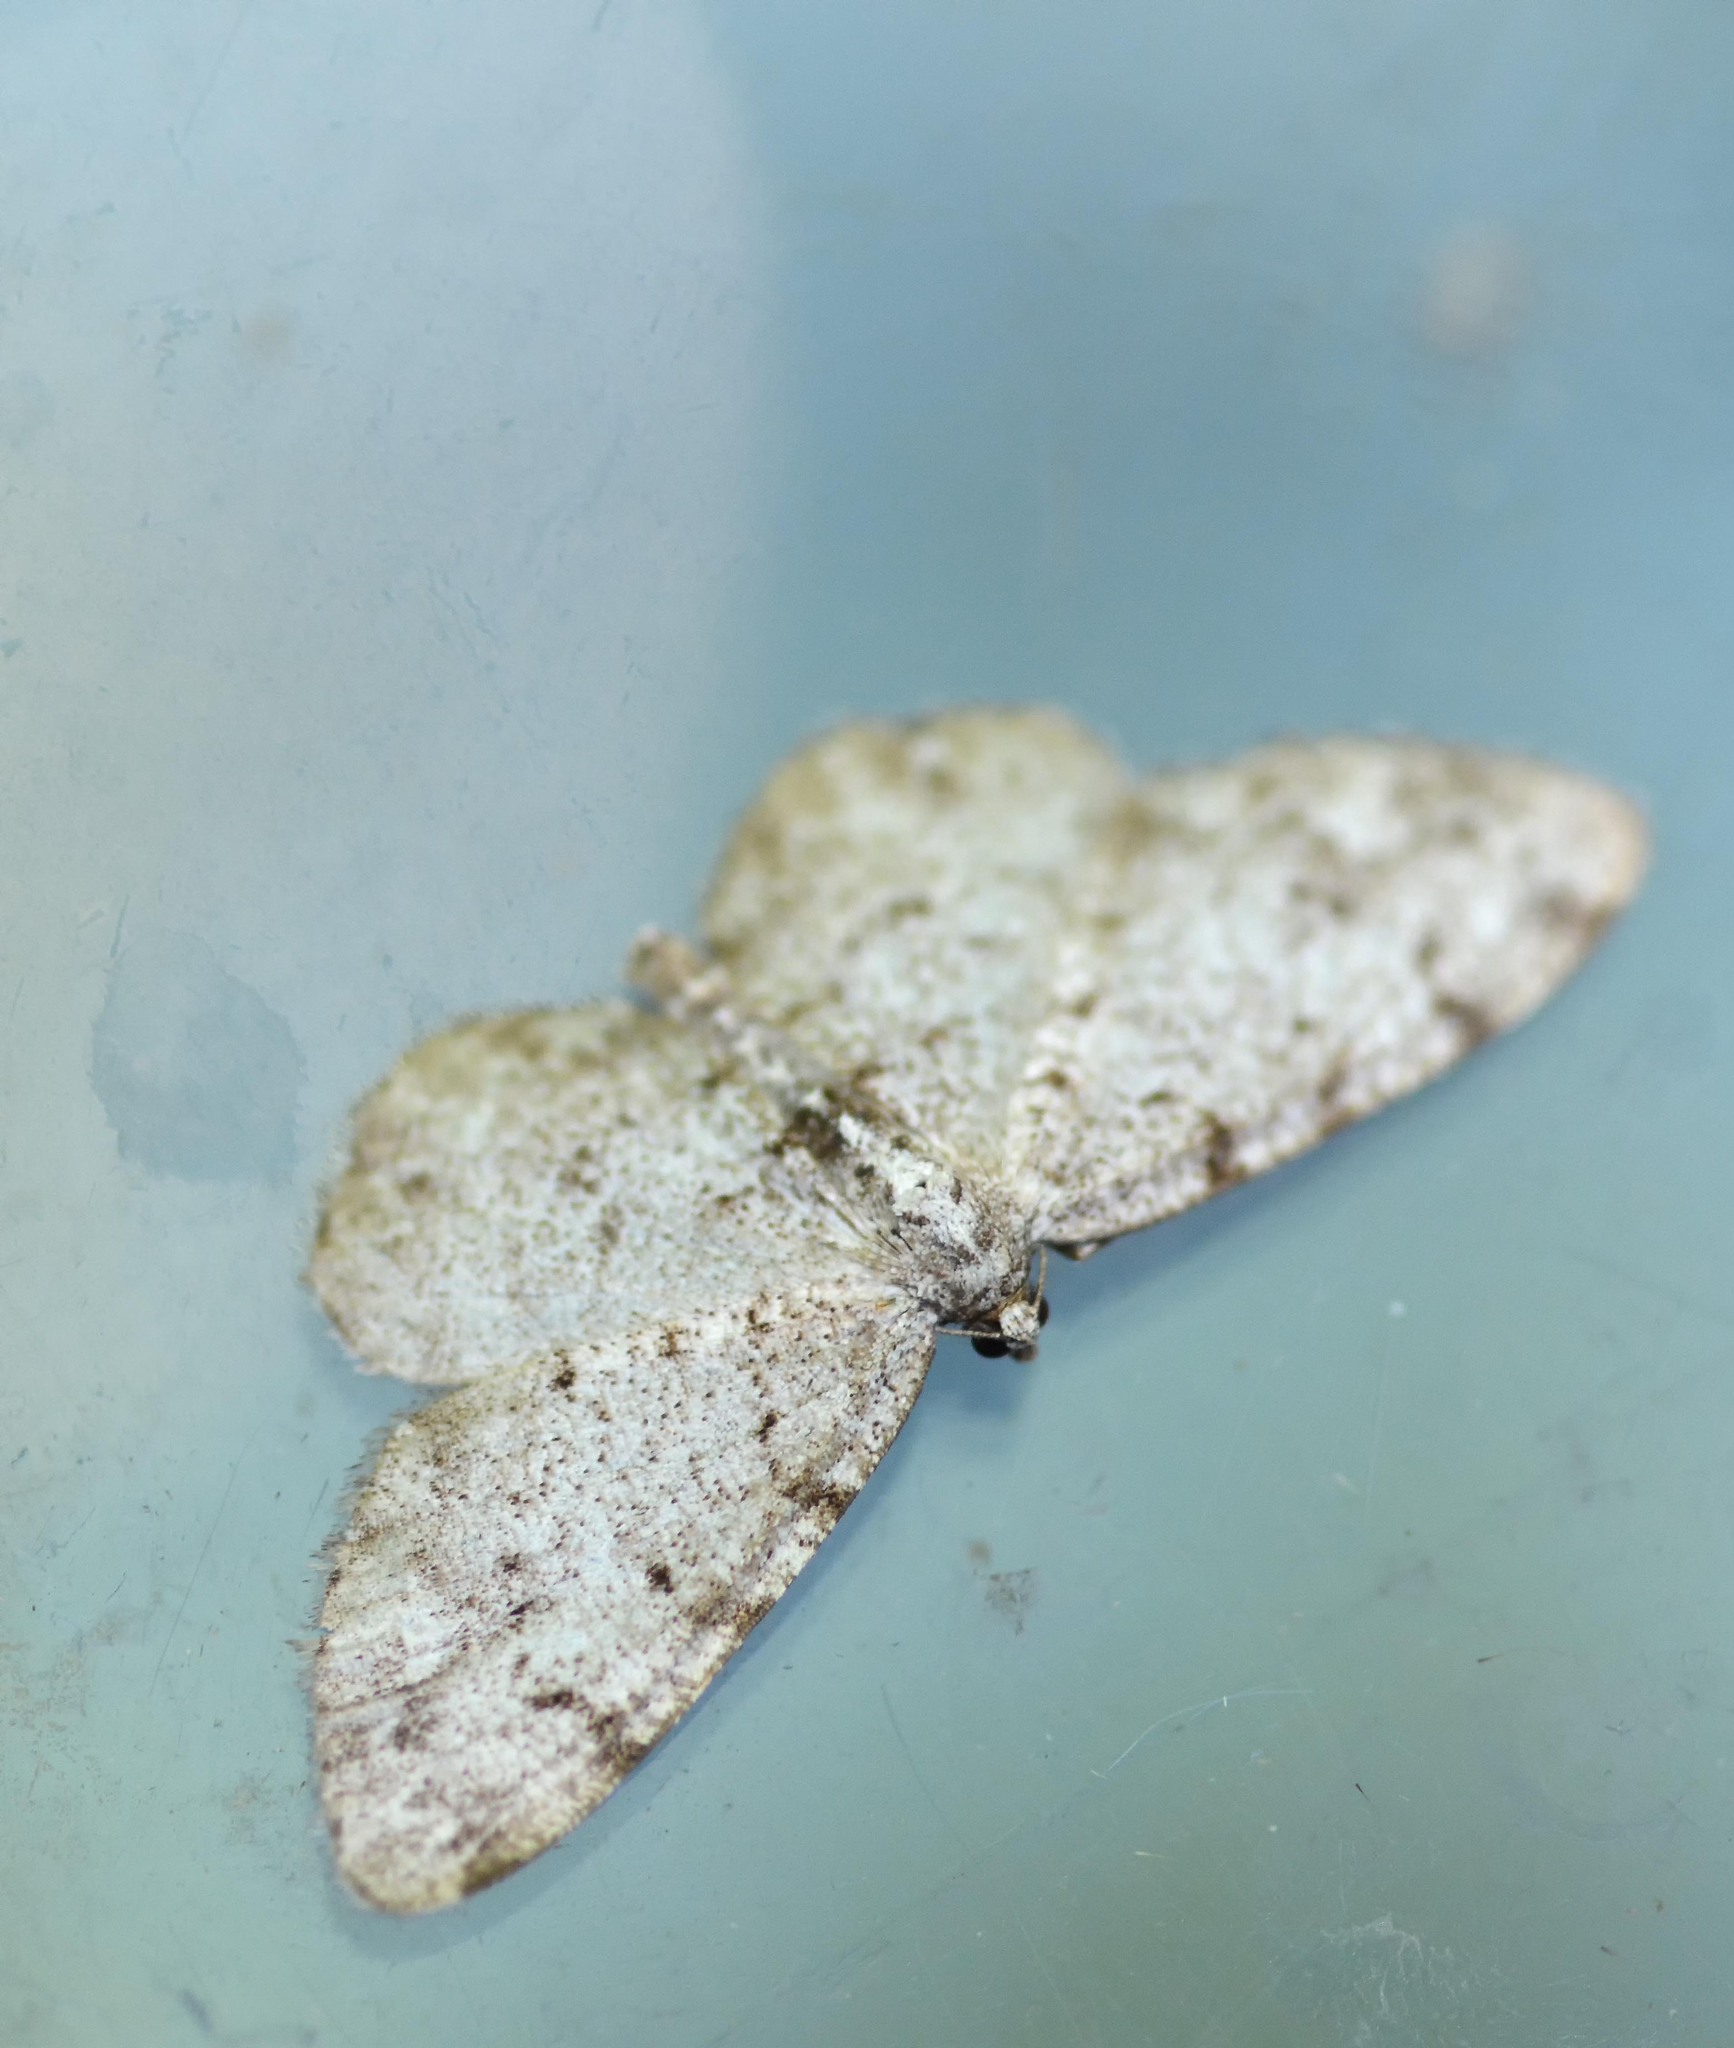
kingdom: Animalia
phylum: Arthropoda
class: Insecta
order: Lepidoptera
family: Geometridae
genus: Aethalura
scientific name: Aethalura punctulata
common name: Grey birch
